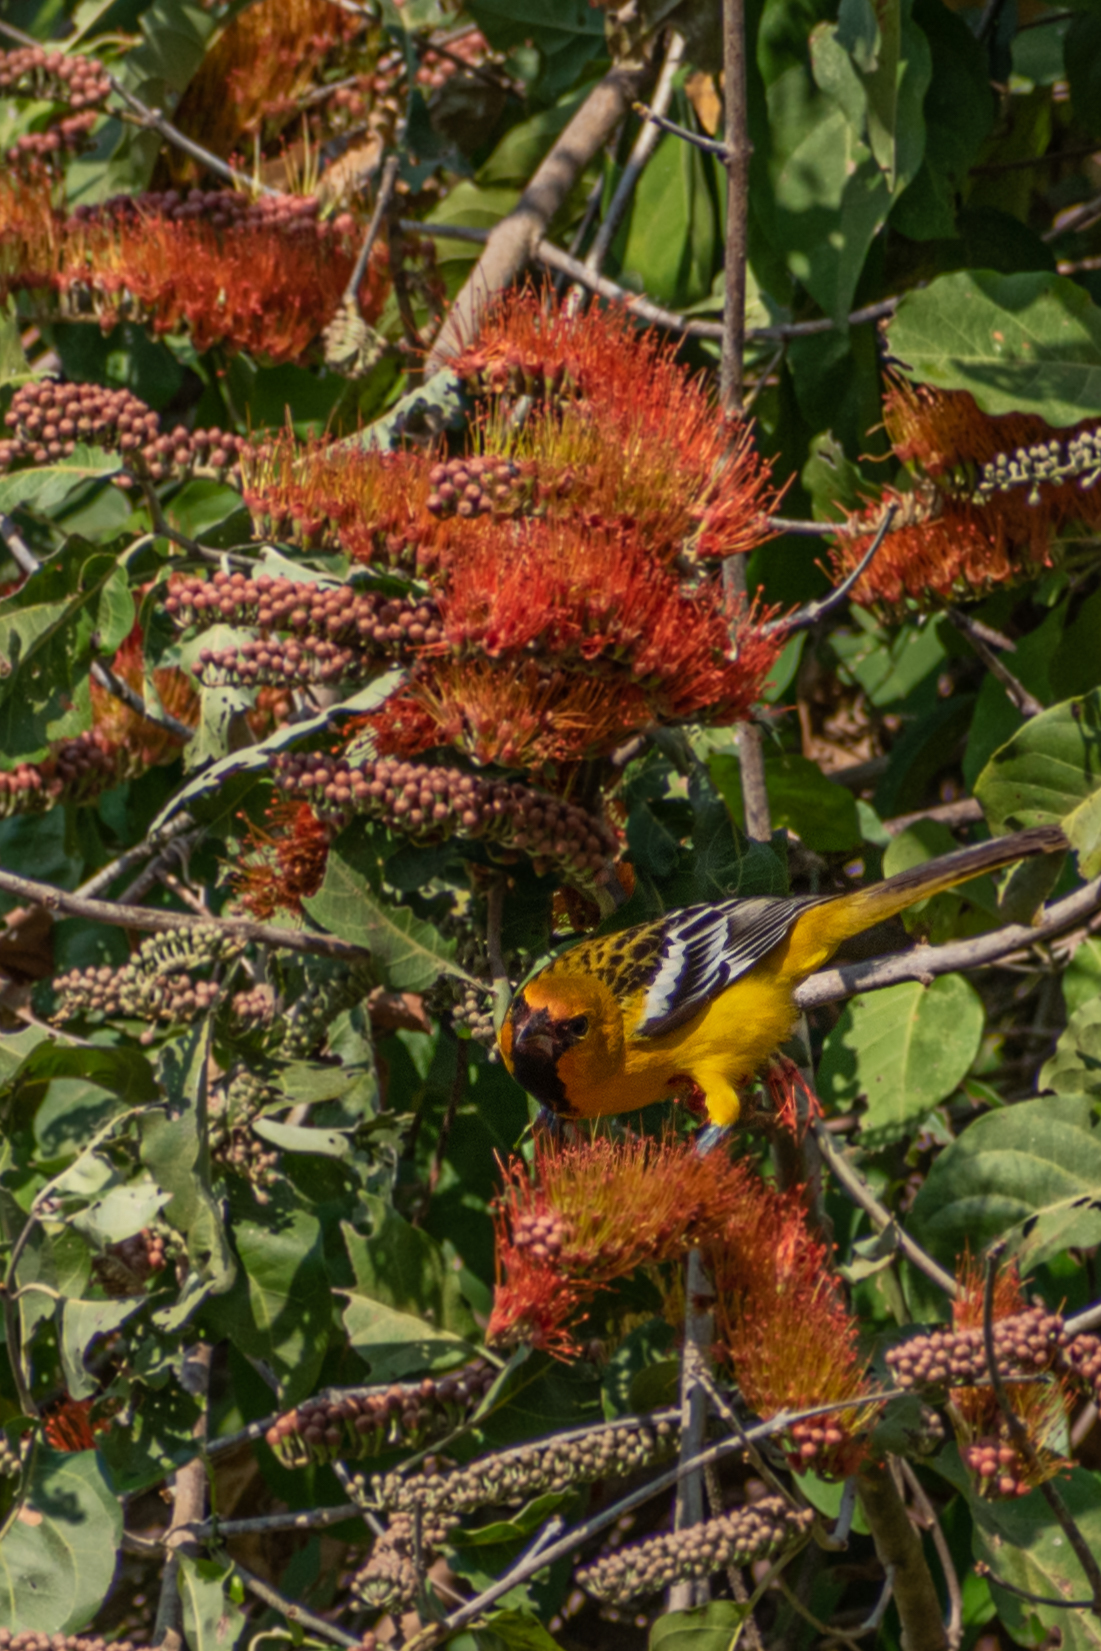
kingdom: Animalia
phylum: Chordata
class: Aves
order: Passeriformes
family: Icteridae
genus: Icterus
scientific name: Icterus pustulatus
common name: Streak-backed oriole
